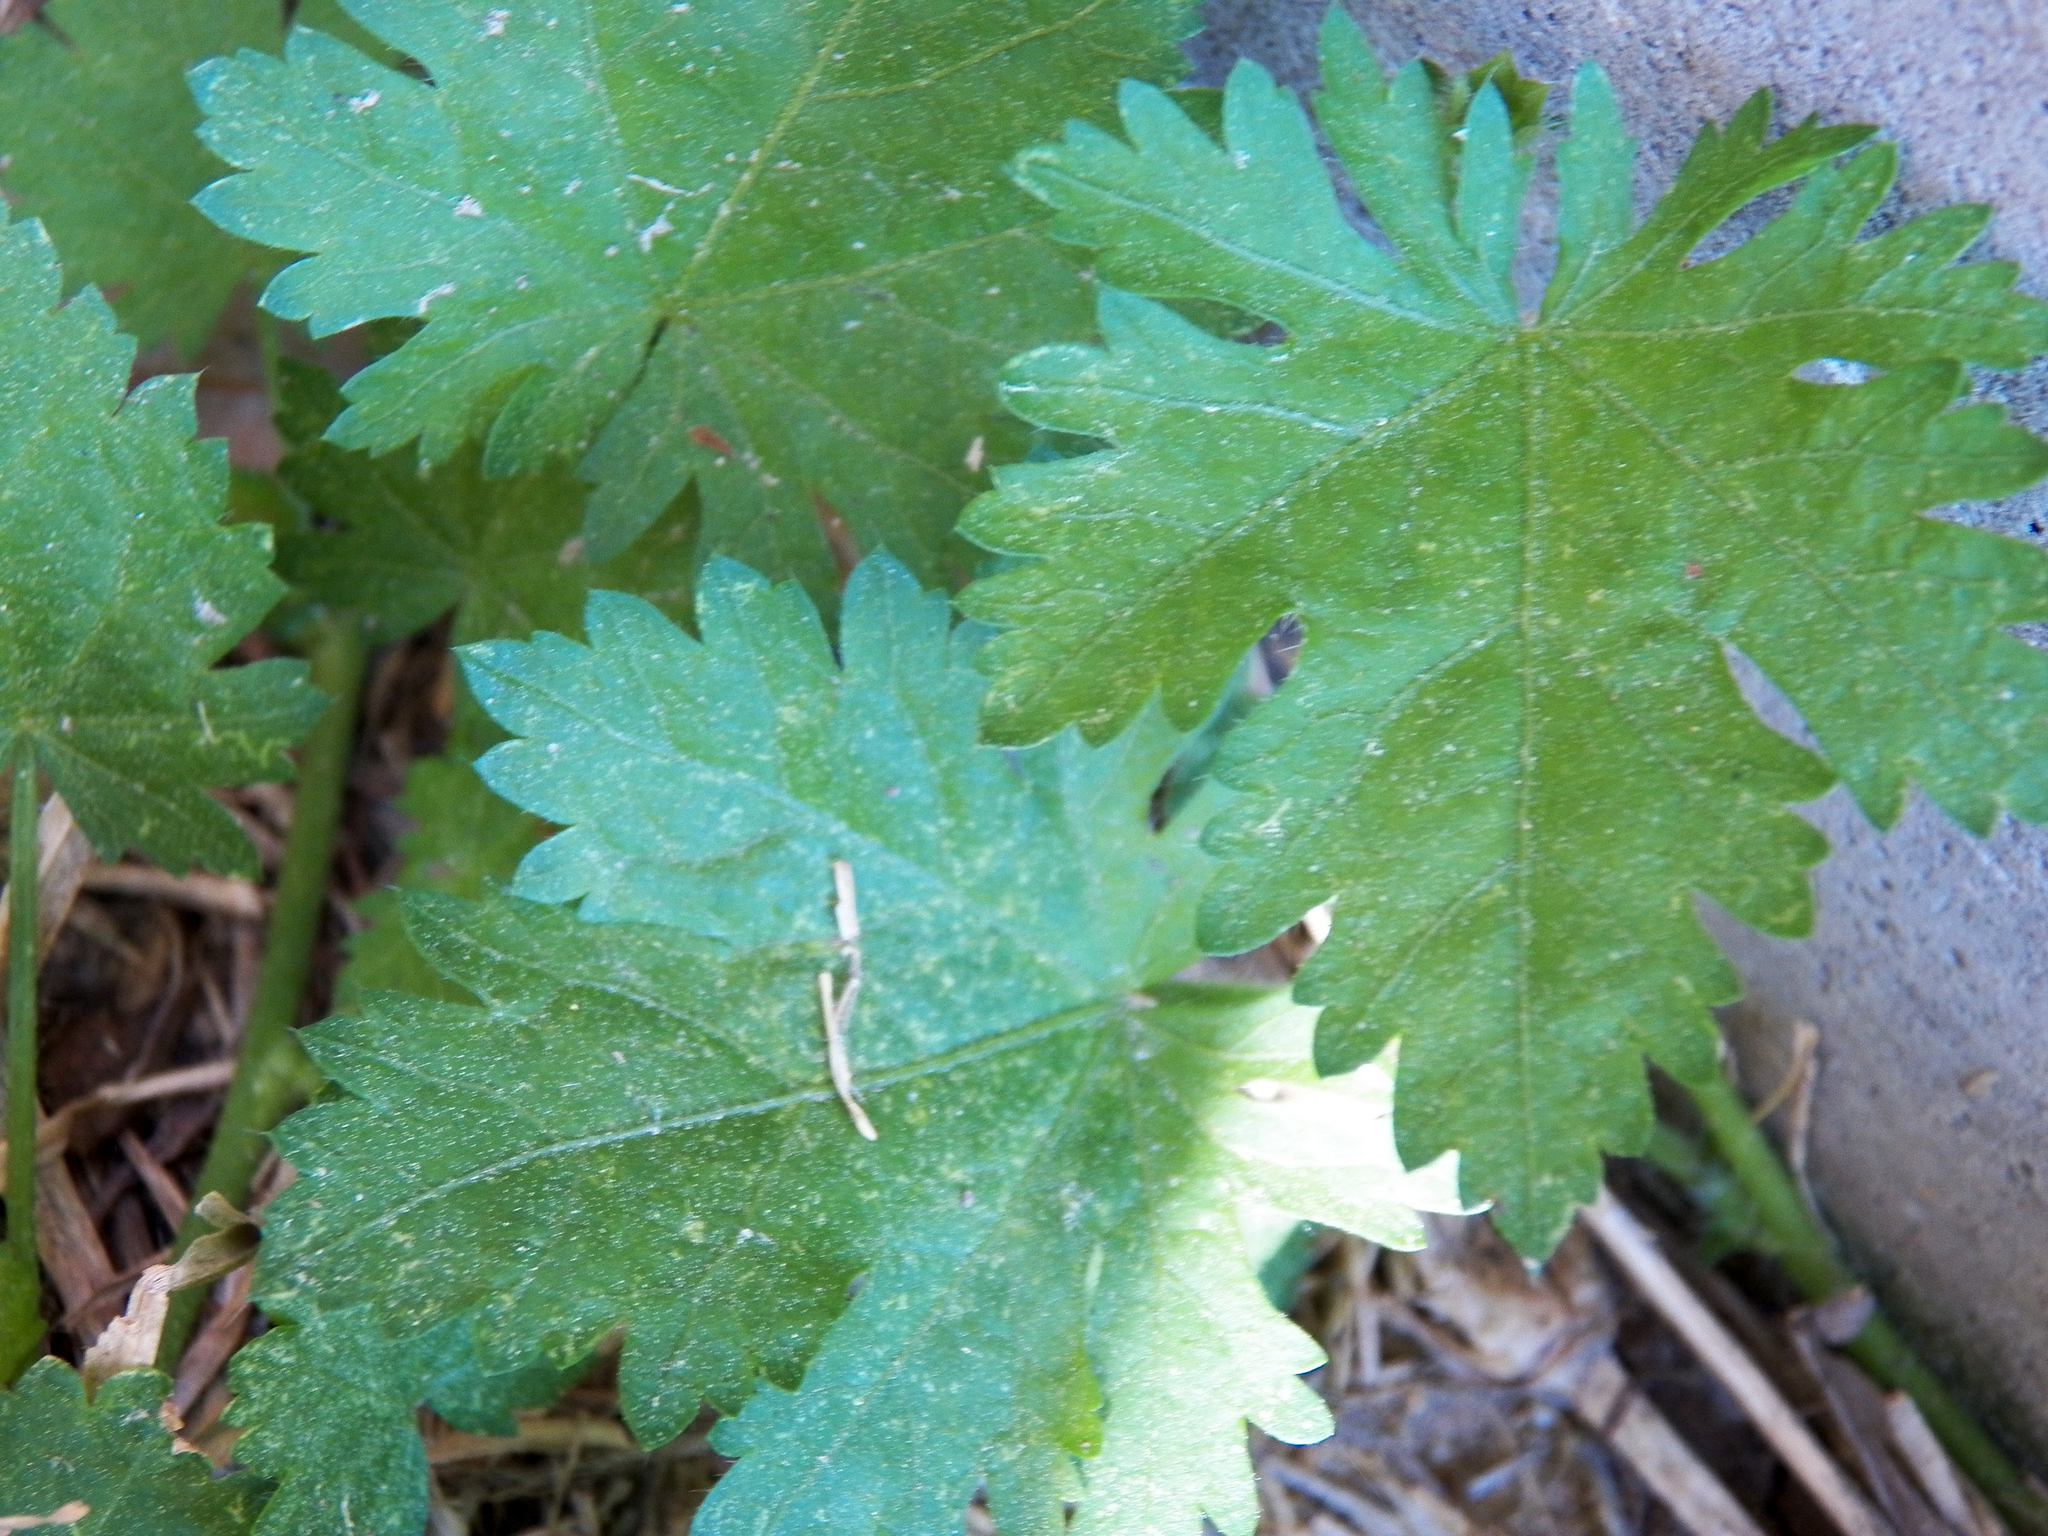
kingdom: Plantae
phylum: Tracheophyta
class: Magnoliopsida
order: Malvales
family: Malvaceae
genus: Modiola
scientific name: Modiola caroliniana
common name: Carolina bristlemallow
